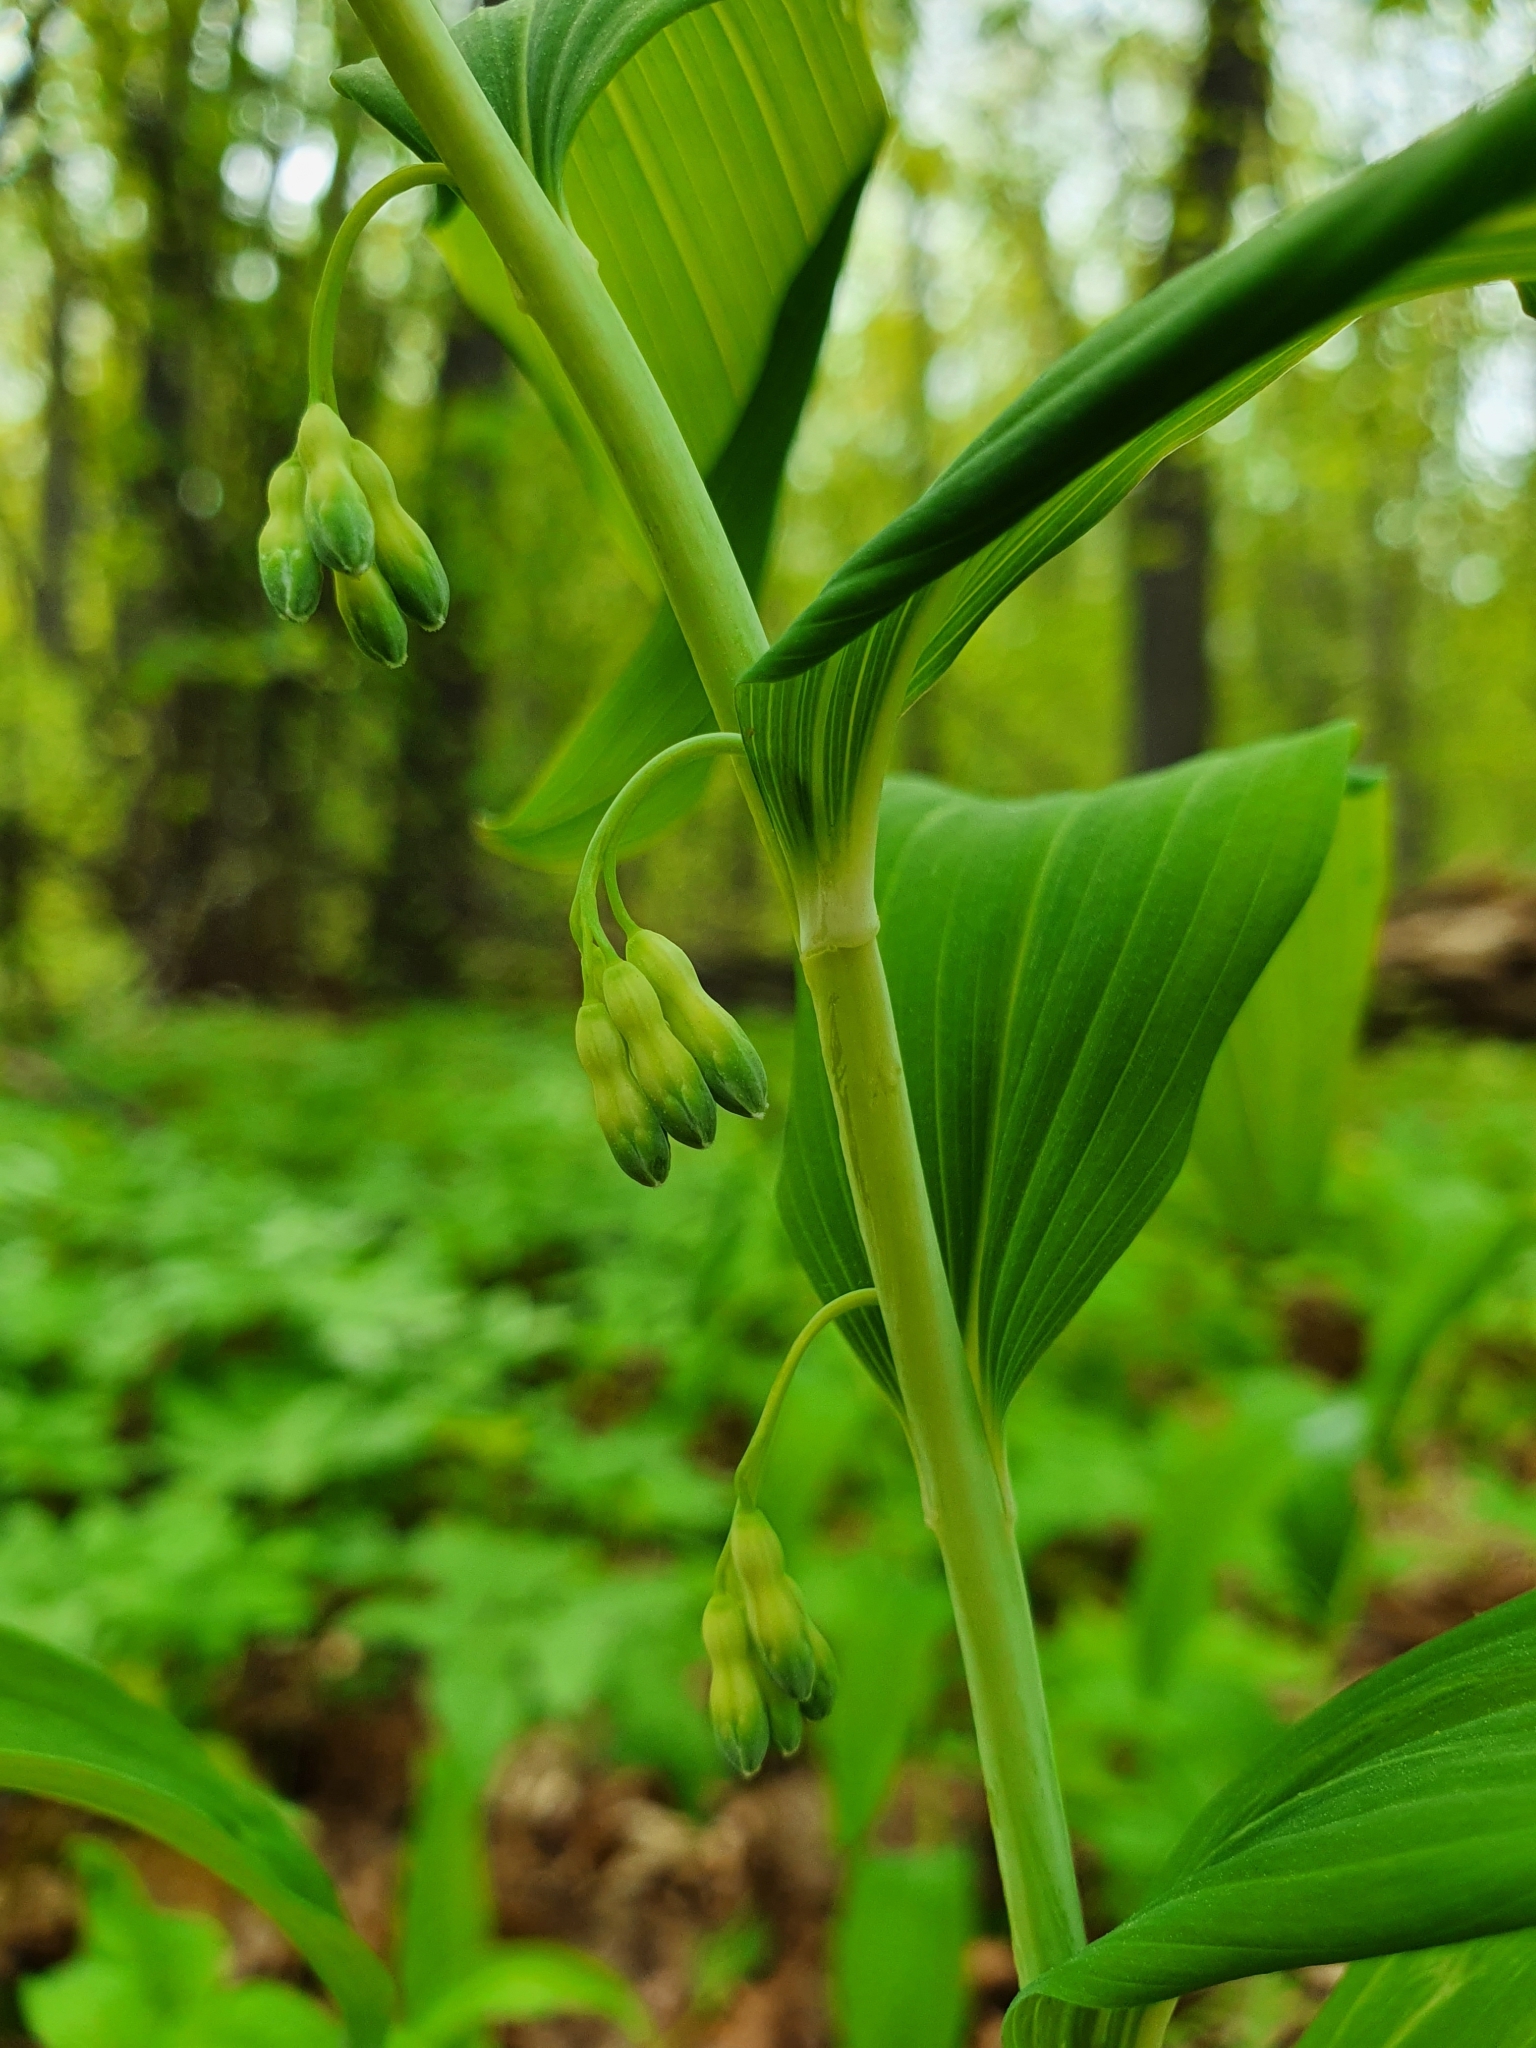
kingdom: Plantae
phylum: Tracheophyta
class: Liliopsida
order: Asparagales
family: Asparagaceae
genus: Polygonatum
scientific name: Polygonatum multiflorum
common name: Solomon's-seal
